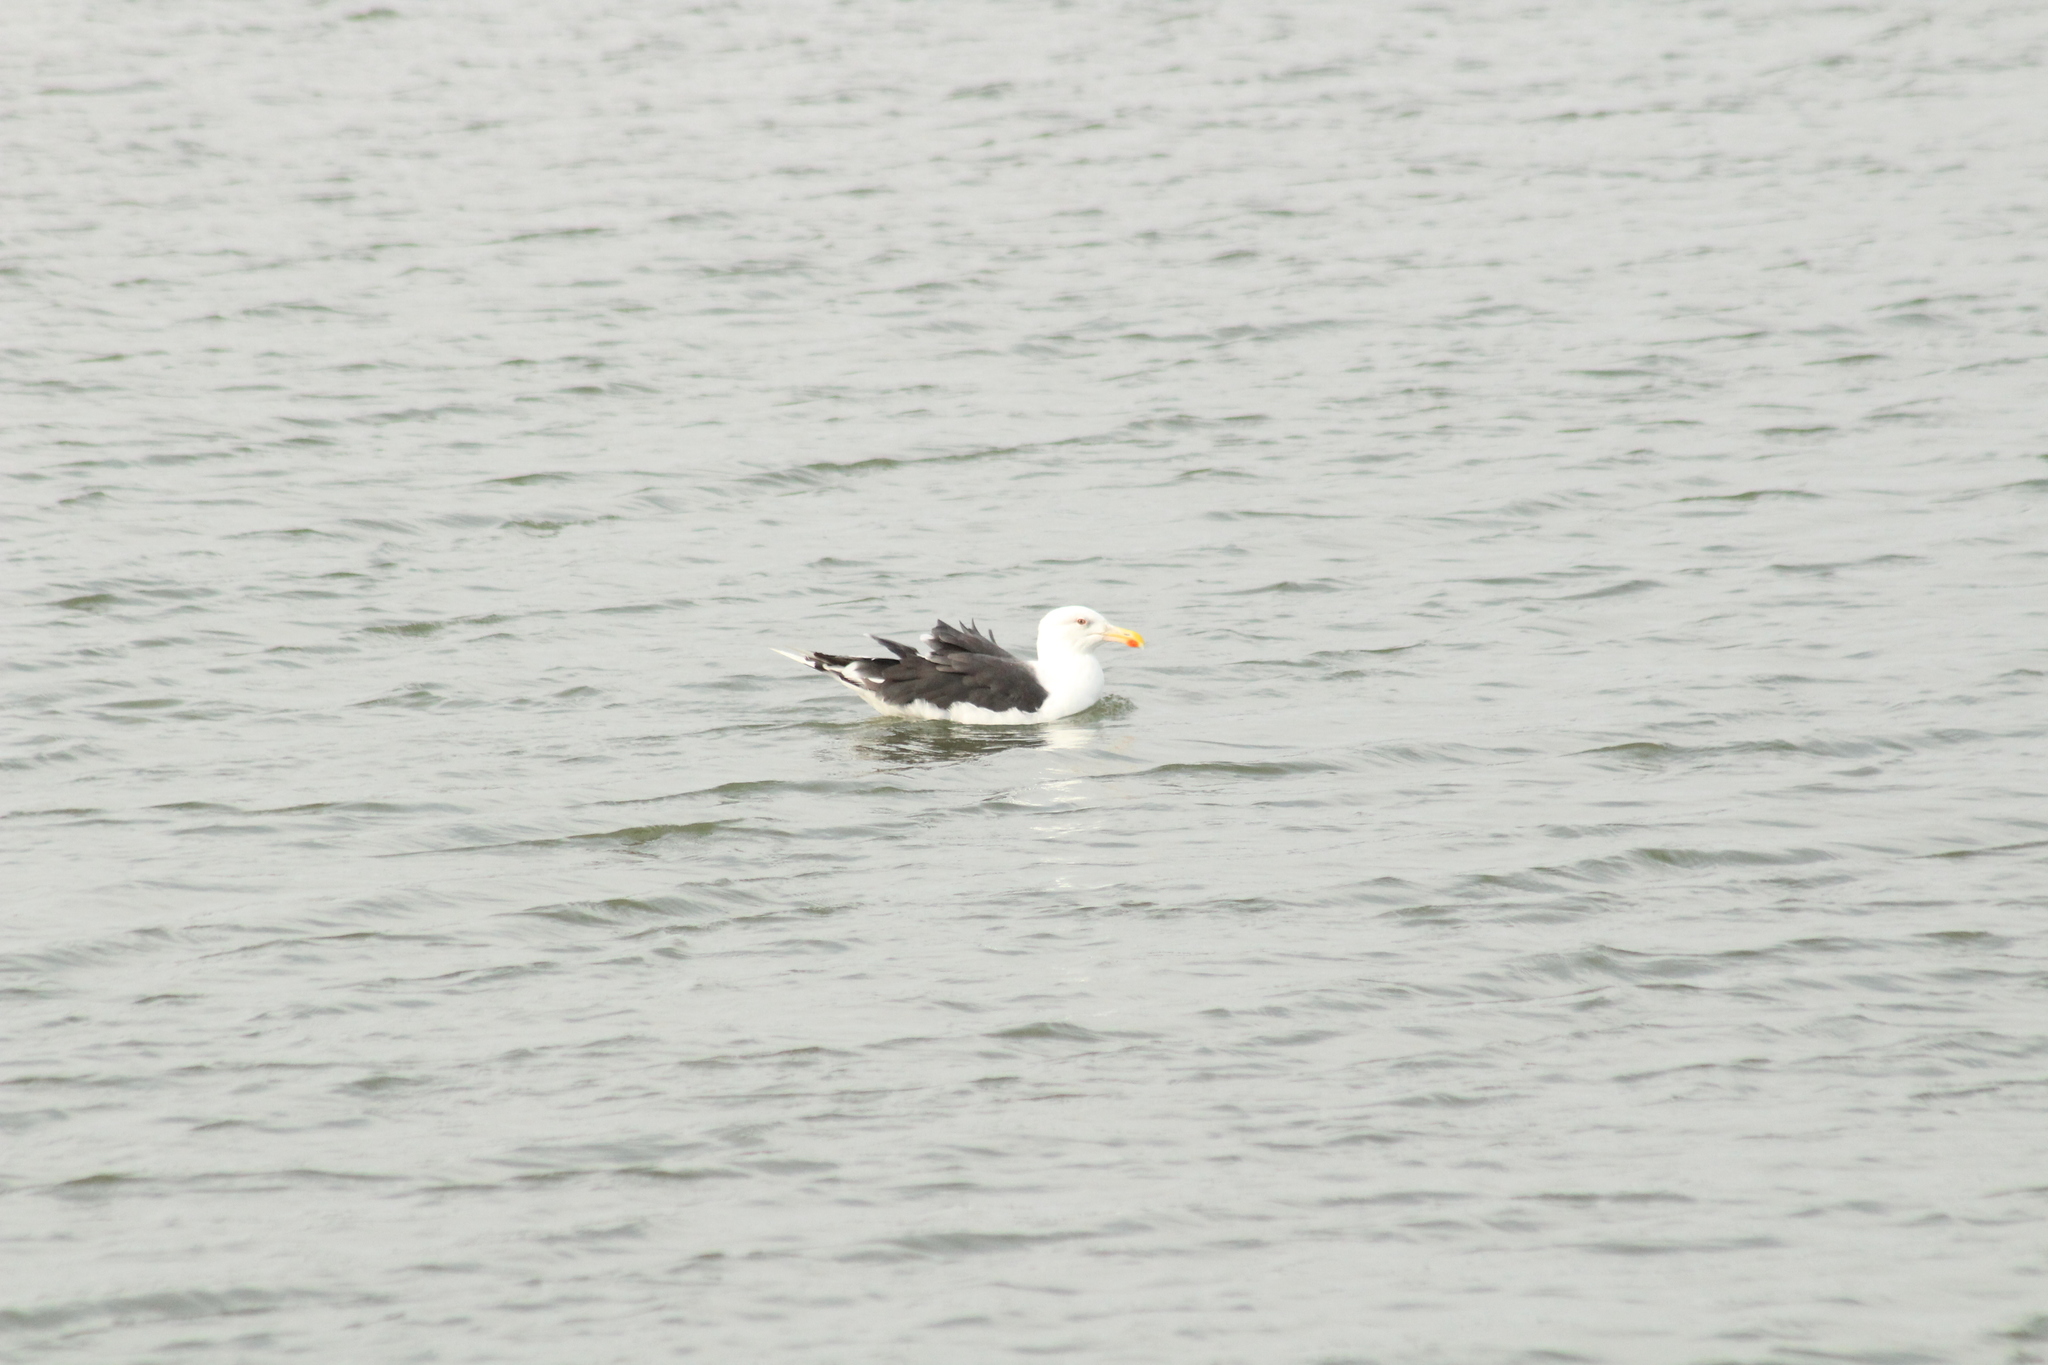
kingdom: Animalia
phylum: Chordata
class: Aves
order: Charadriiformes
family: Laridae
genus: Larus
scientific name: Larus marinus
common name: Great black-backed gull
